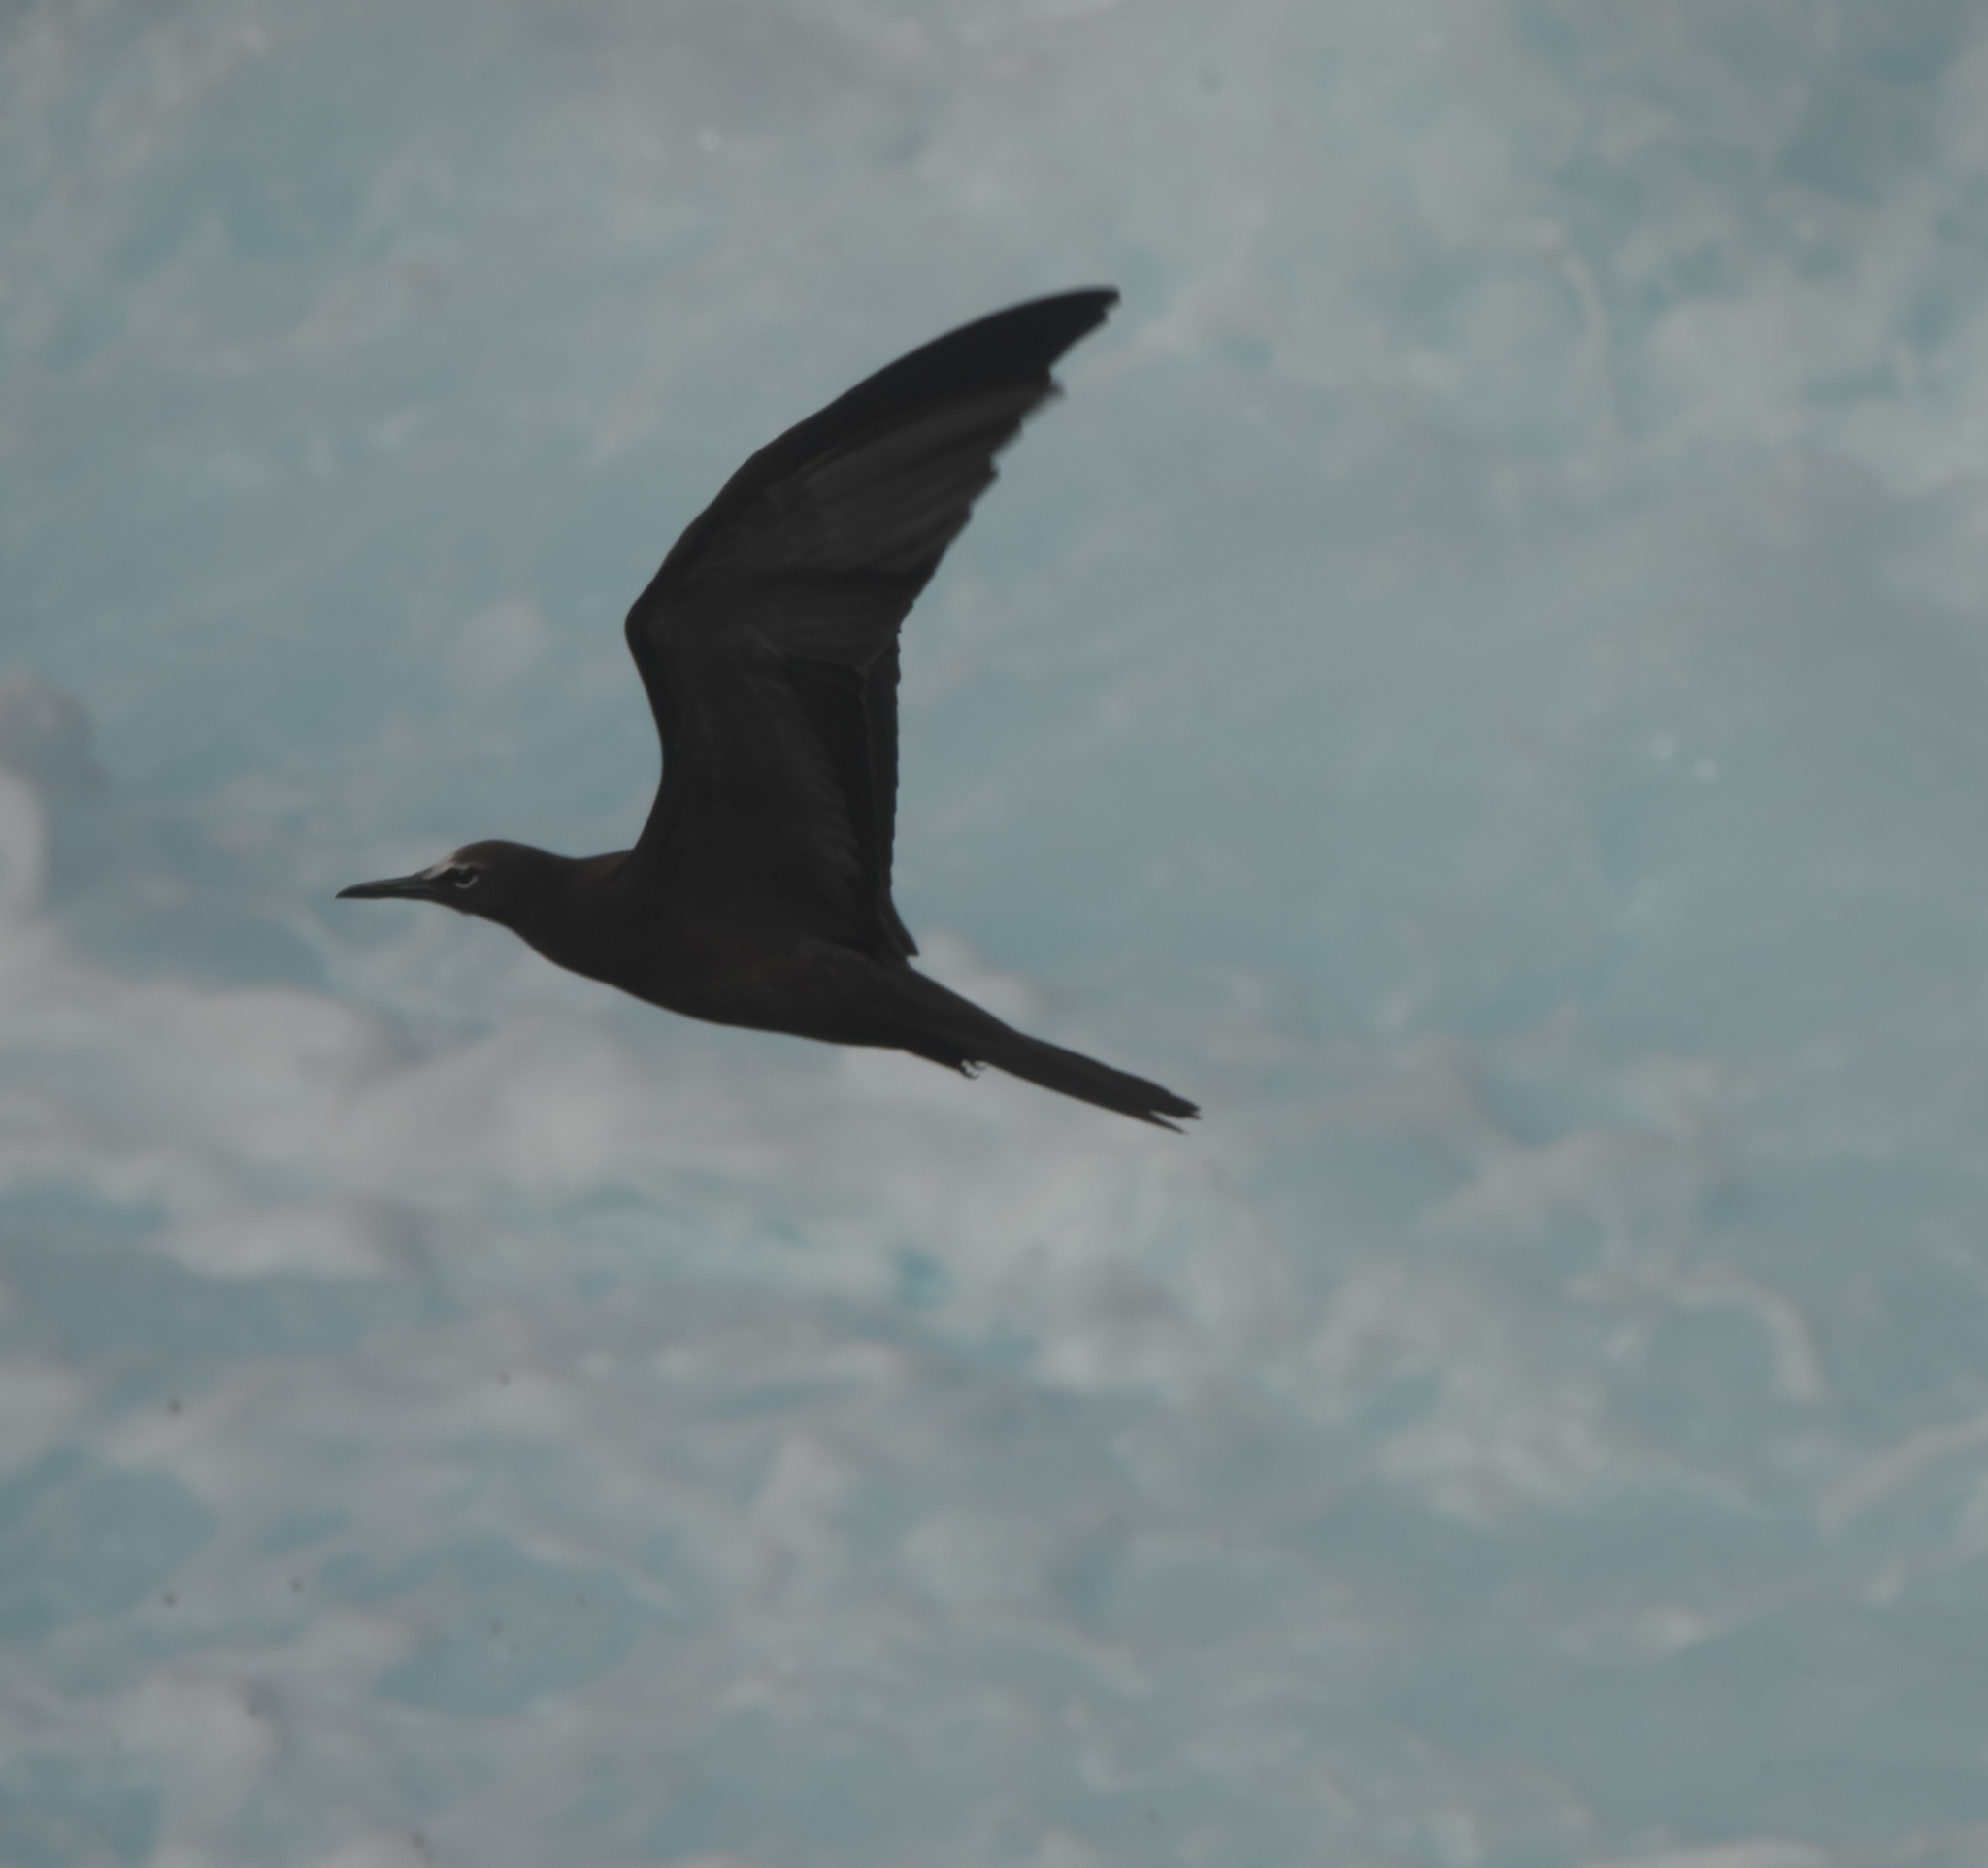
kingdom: Animalia
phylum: Chordata
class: Aves
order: Charadriiformes
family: Laridae
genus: Anous
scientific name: Anous stolidus
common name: Brown noddy
